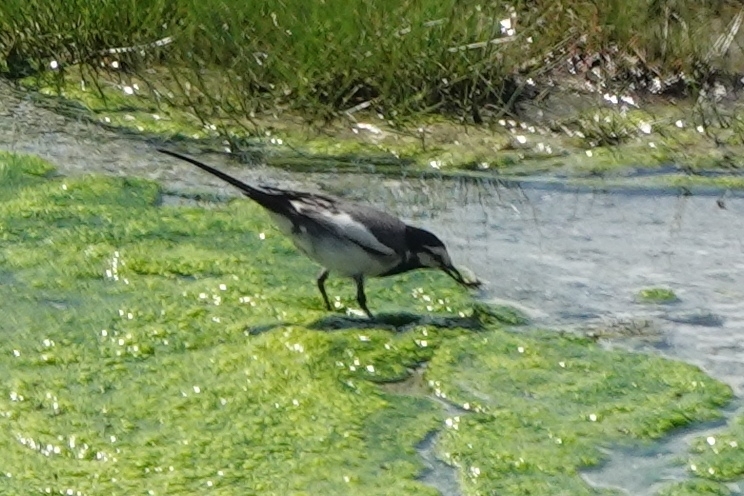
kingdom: Animalia
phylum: Chordata
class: Aves
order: Passeriformes
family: Motacillidae
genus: Motacilla
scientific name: Motacilla alba
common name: White wagtail
